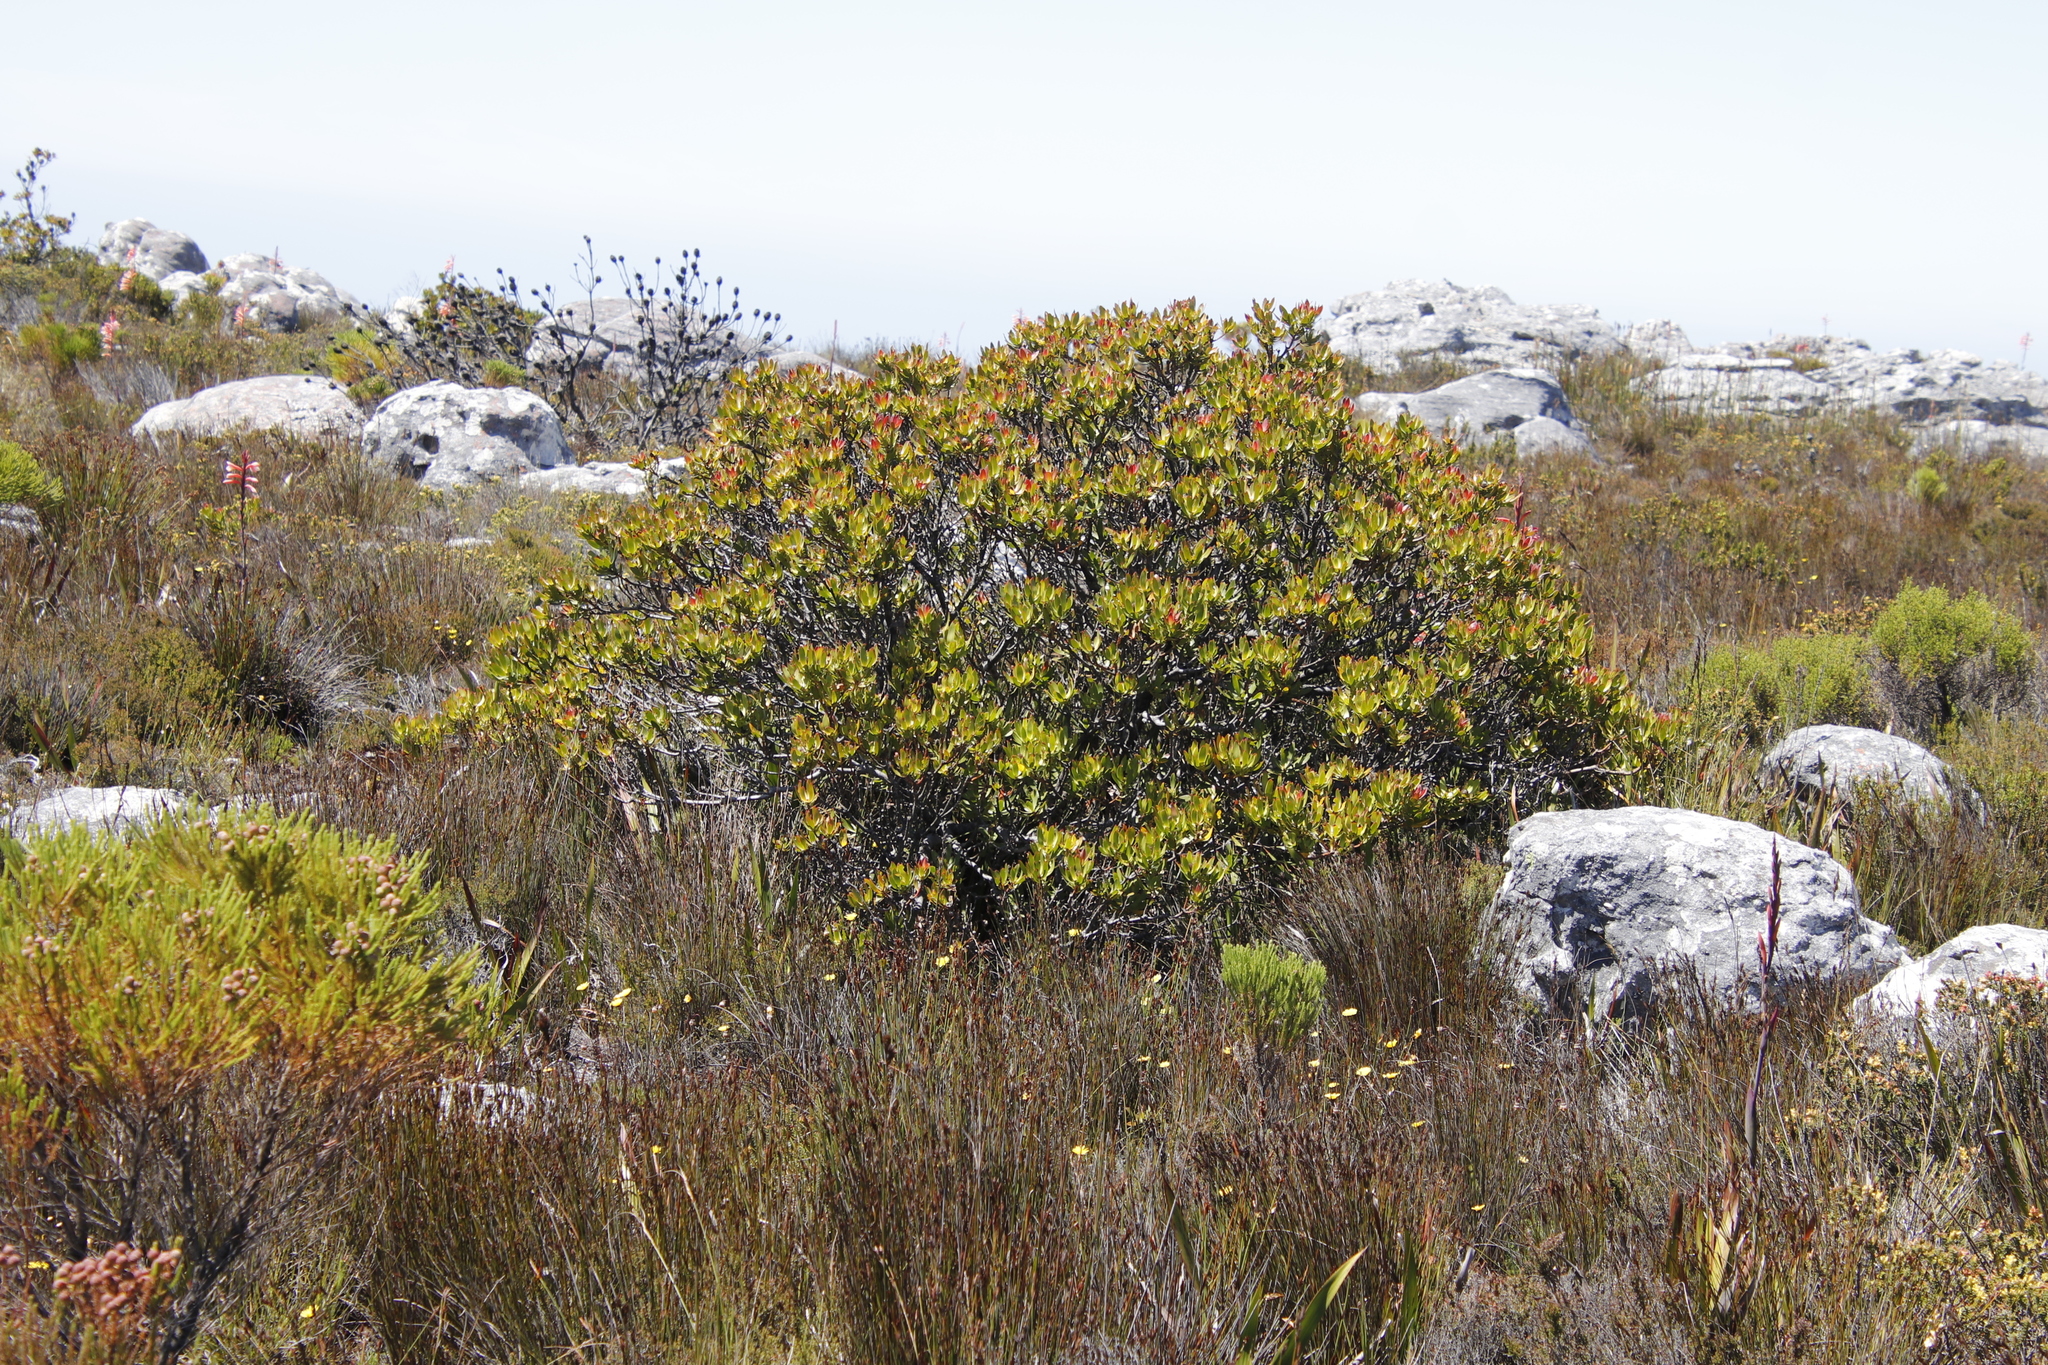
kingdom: Plantae
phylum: Tracheophyta
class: Magnoliopsida
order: Proteales
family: Proteaceae
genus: Leucadendron
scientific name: Leucadendron strobilinum
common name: Mountain rose
